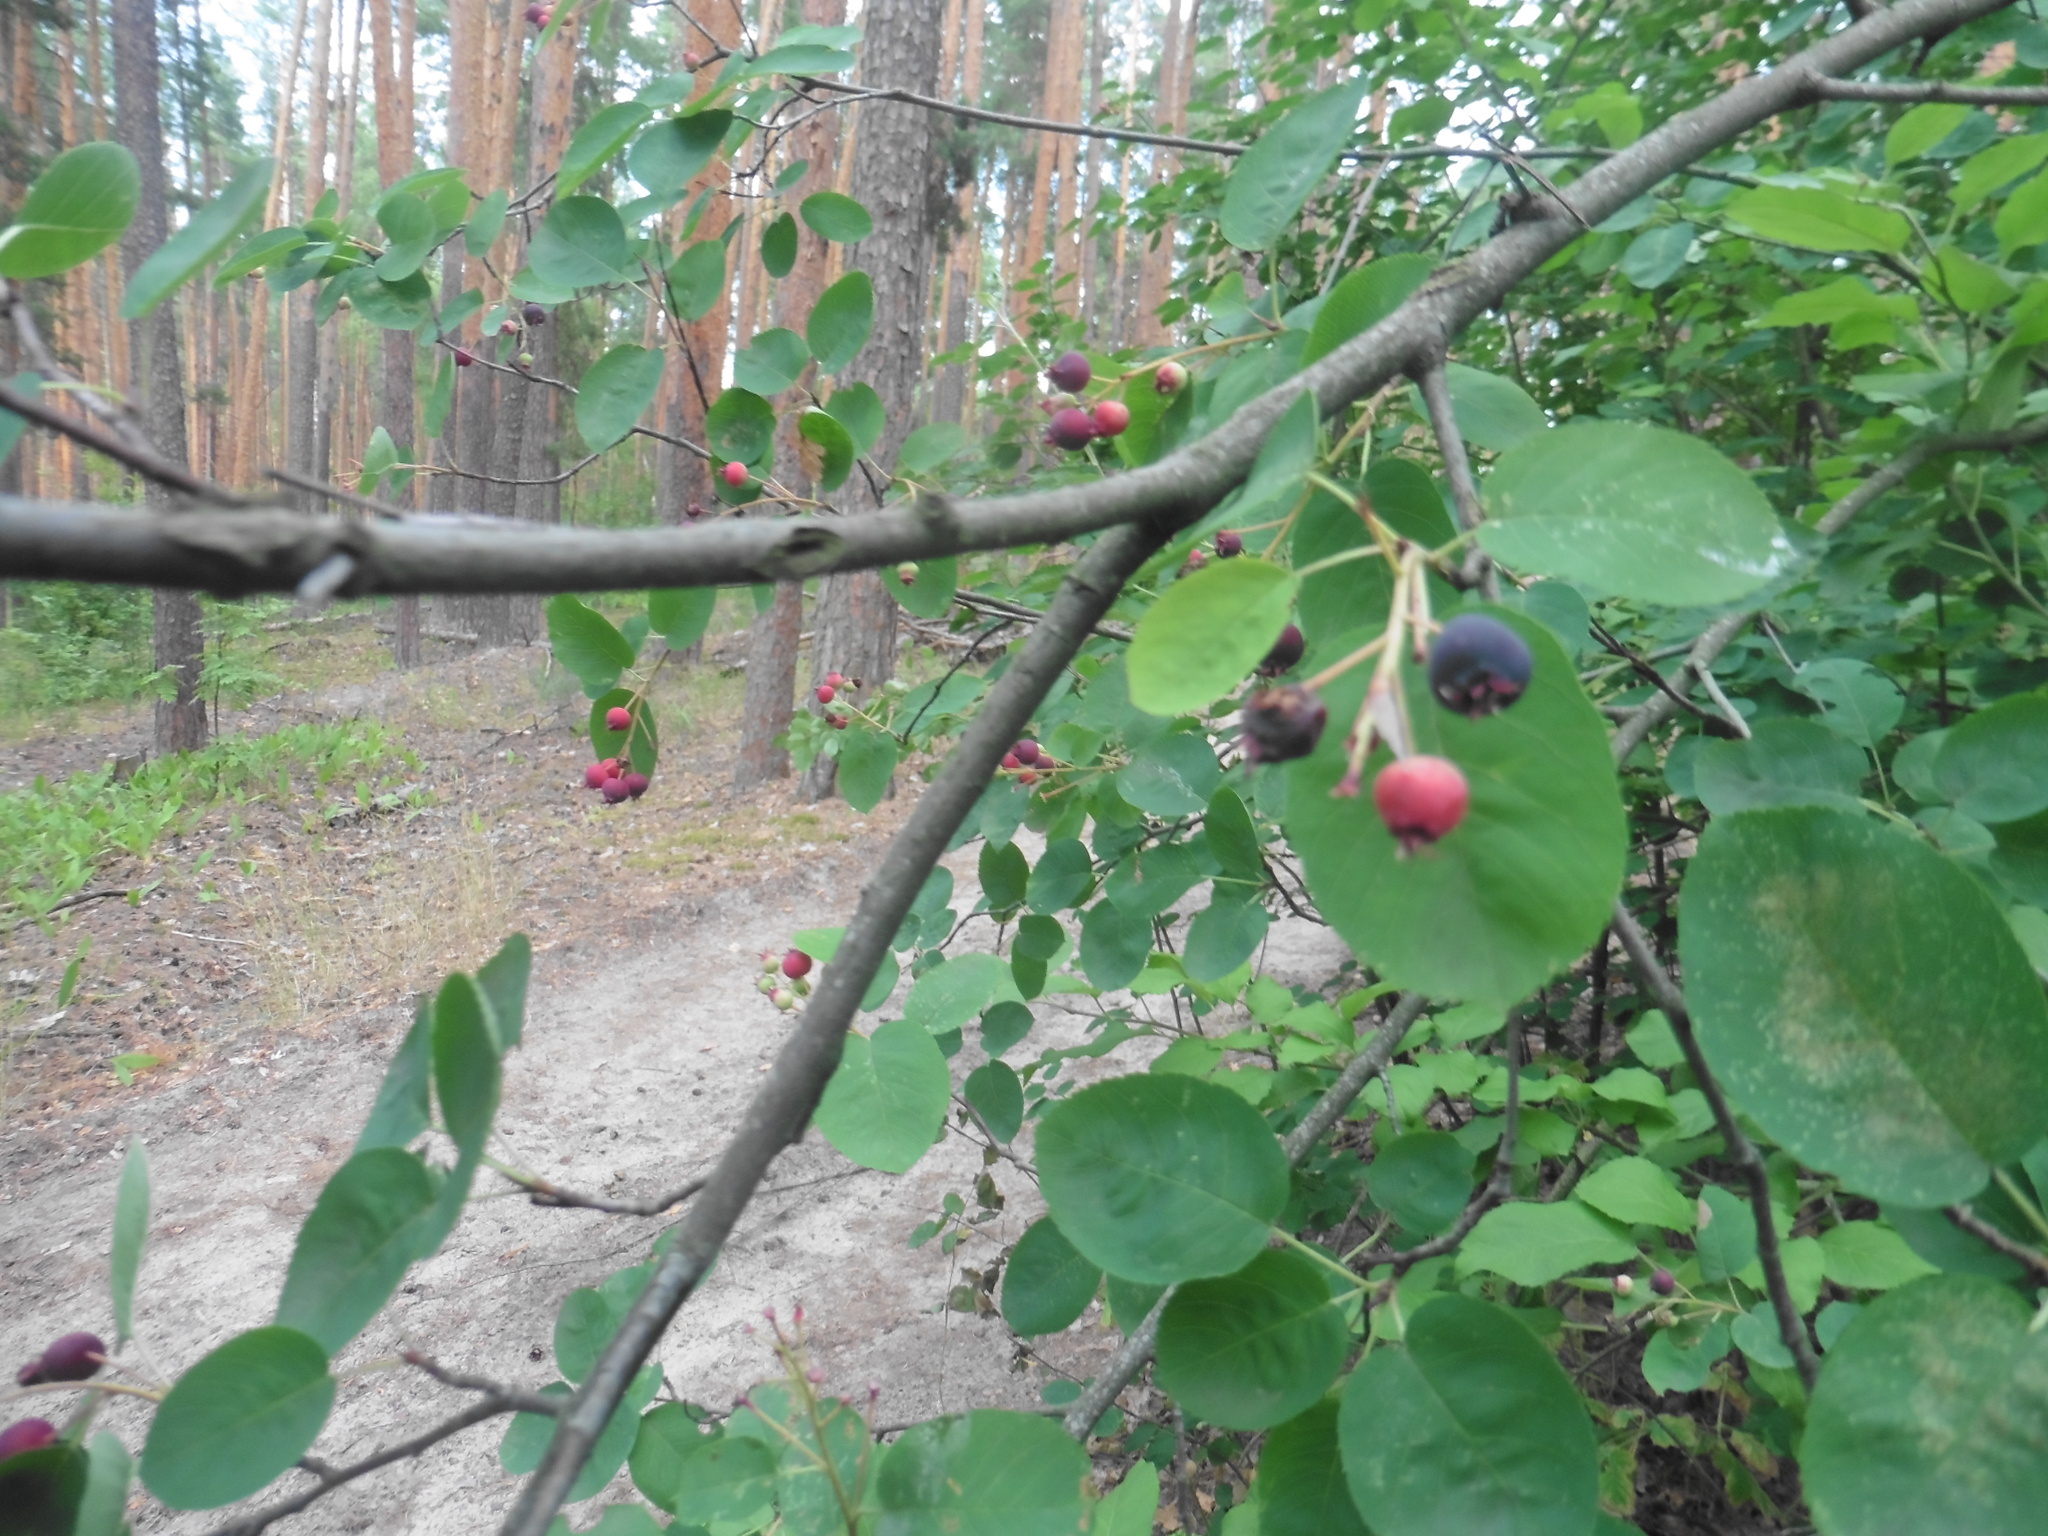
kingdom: Plantae
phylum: Tracheophyta
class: Magnoliopsida
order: Rosales
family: Rosaceae
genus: Amelanchier
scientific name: Amelanchier
